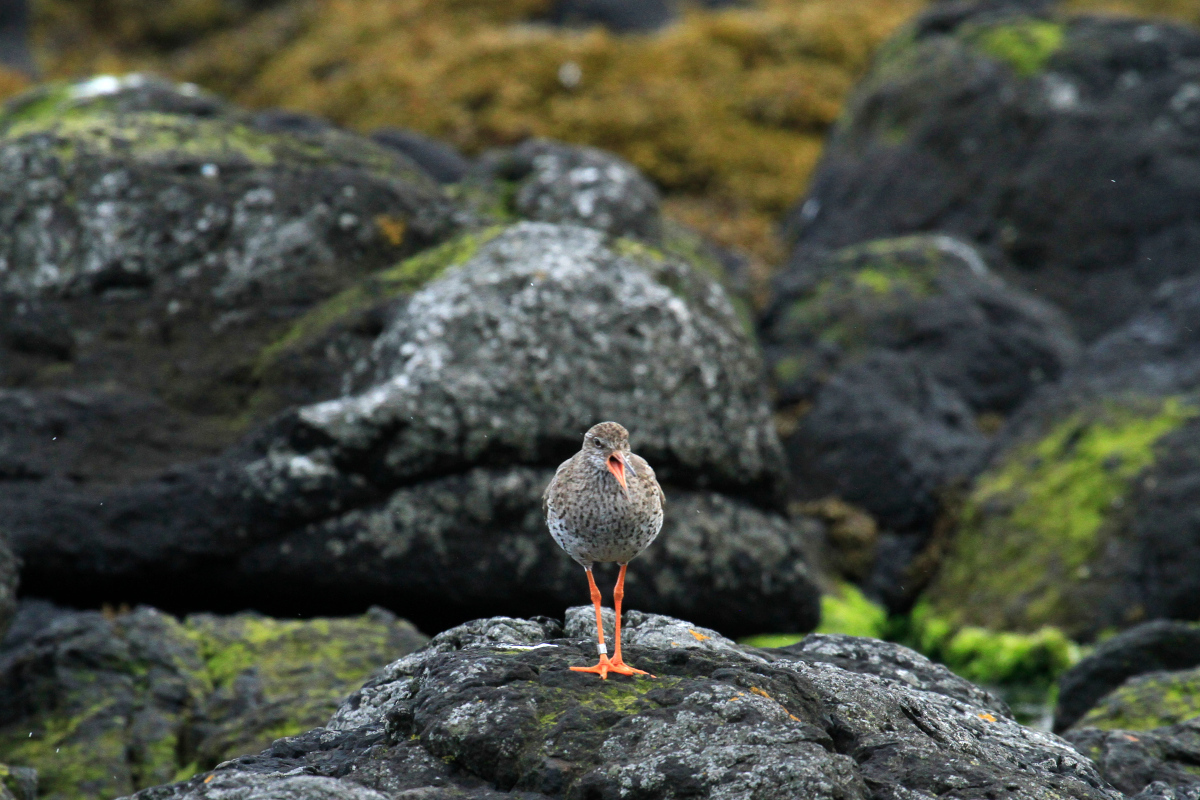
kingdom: Animalia
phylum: Chordata
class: Aves
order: Charadriiformes
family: Scolopacidae
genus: Tringa
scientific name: Tringa totanus
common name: Common redshank
